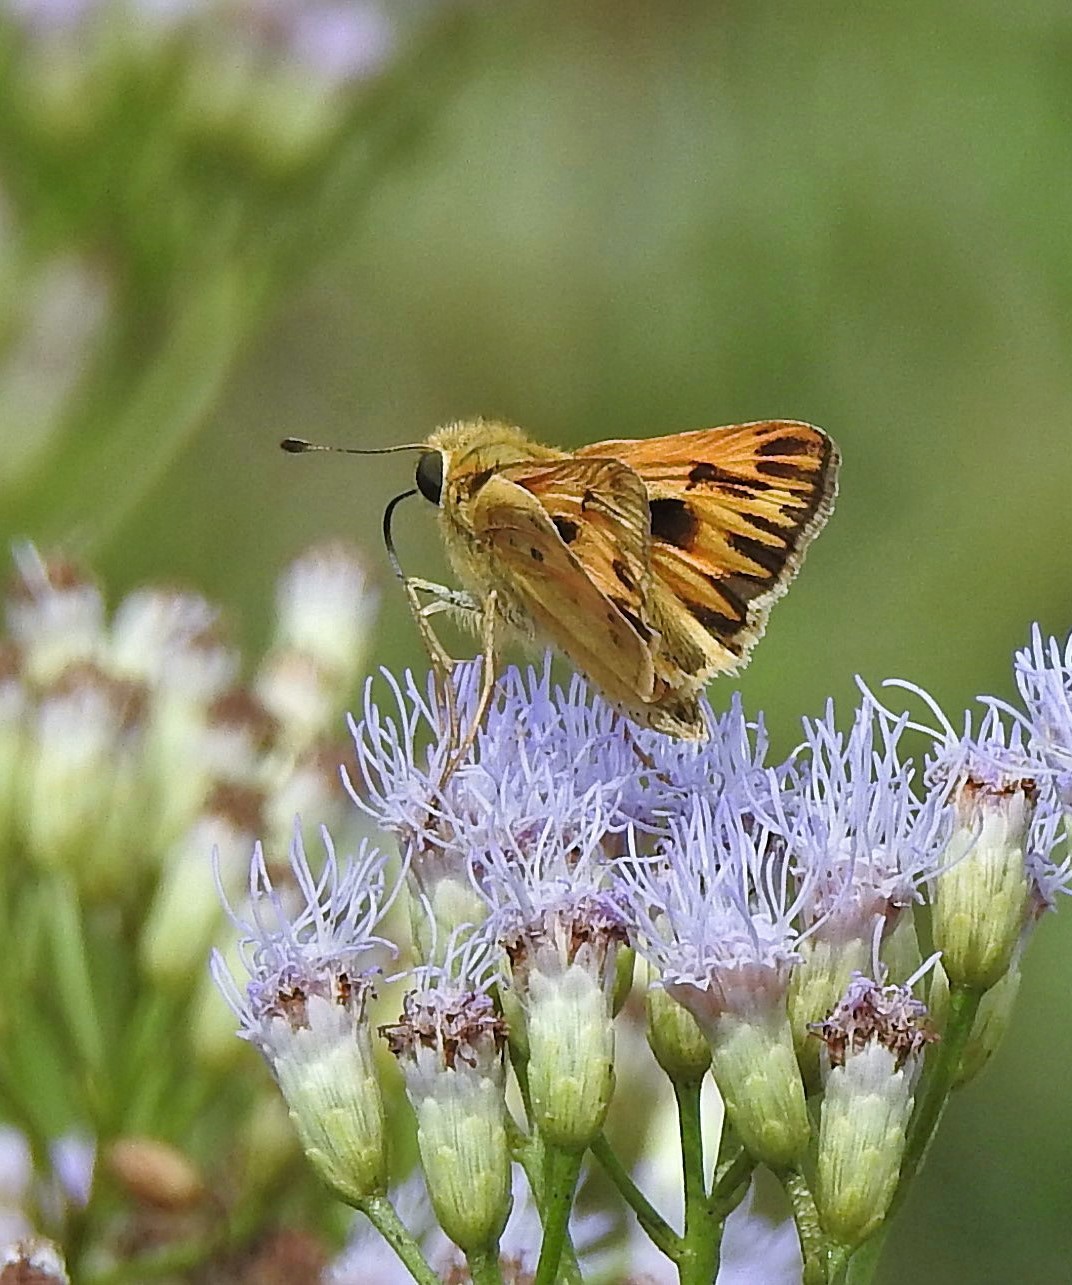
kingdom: Animalia
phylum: Arthropoda
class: Insecta
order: Lepidoptera
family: Hesperiidae
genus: Hylephila
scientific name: Hylephila phyleus
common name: Fiery skipper
